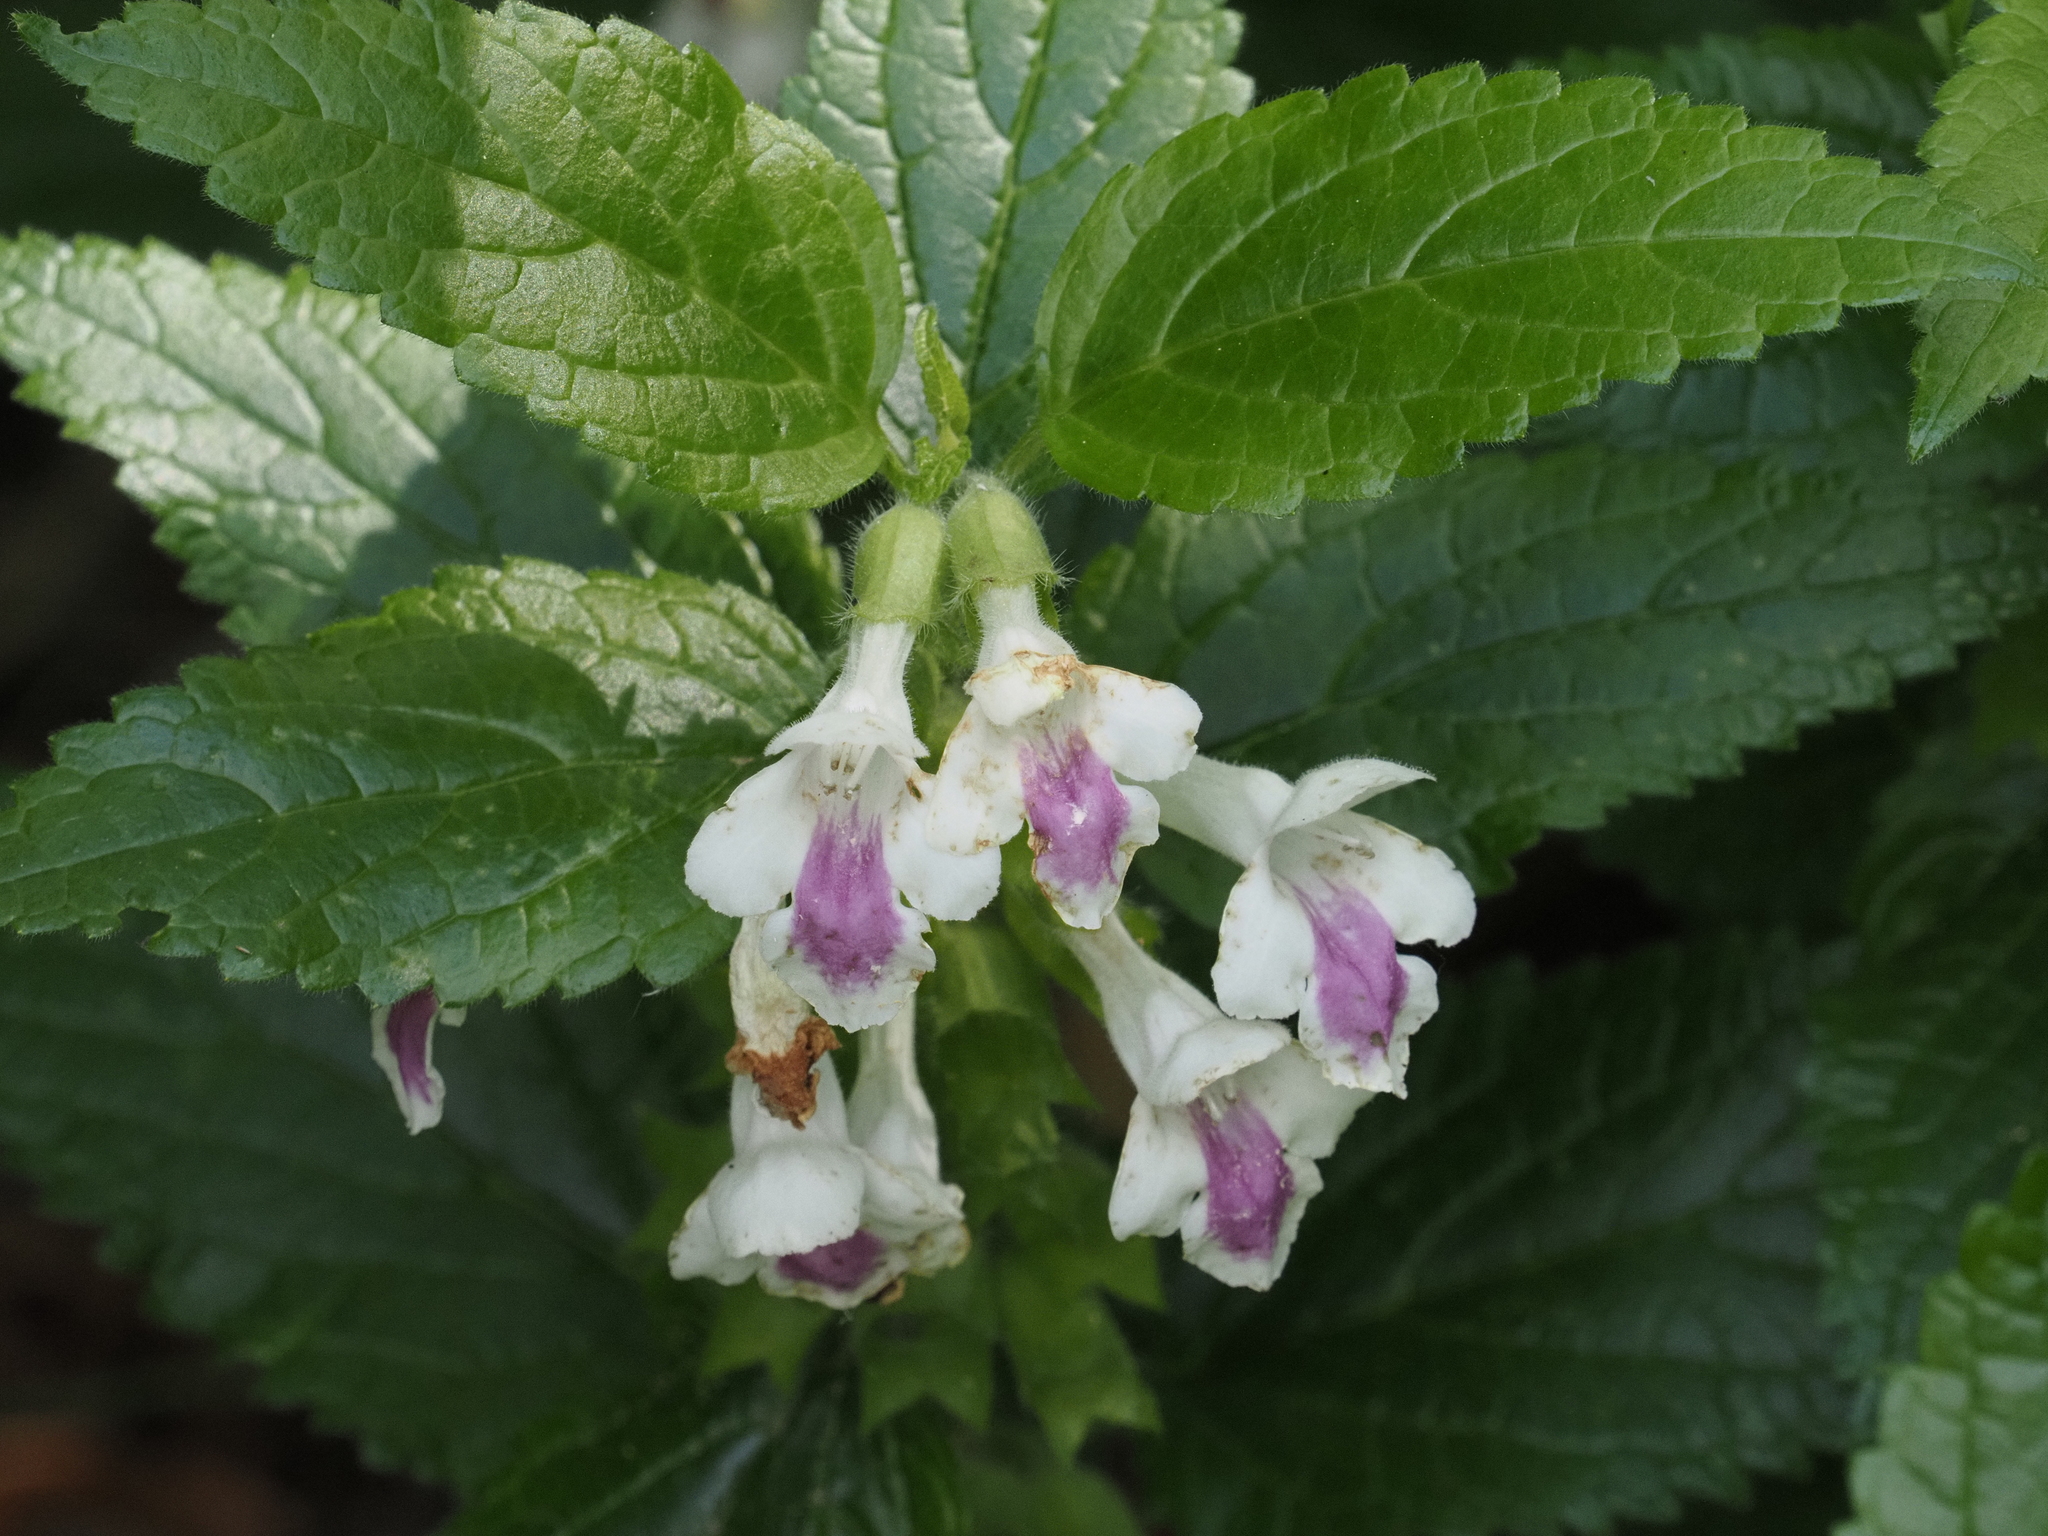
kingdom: Plantae
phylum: Tracheophyta
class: Magnoliopsida
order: Lamiales
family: Lamiaceae
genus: Melittis
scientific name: Melittis melissophyllum
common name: Bastard balm
